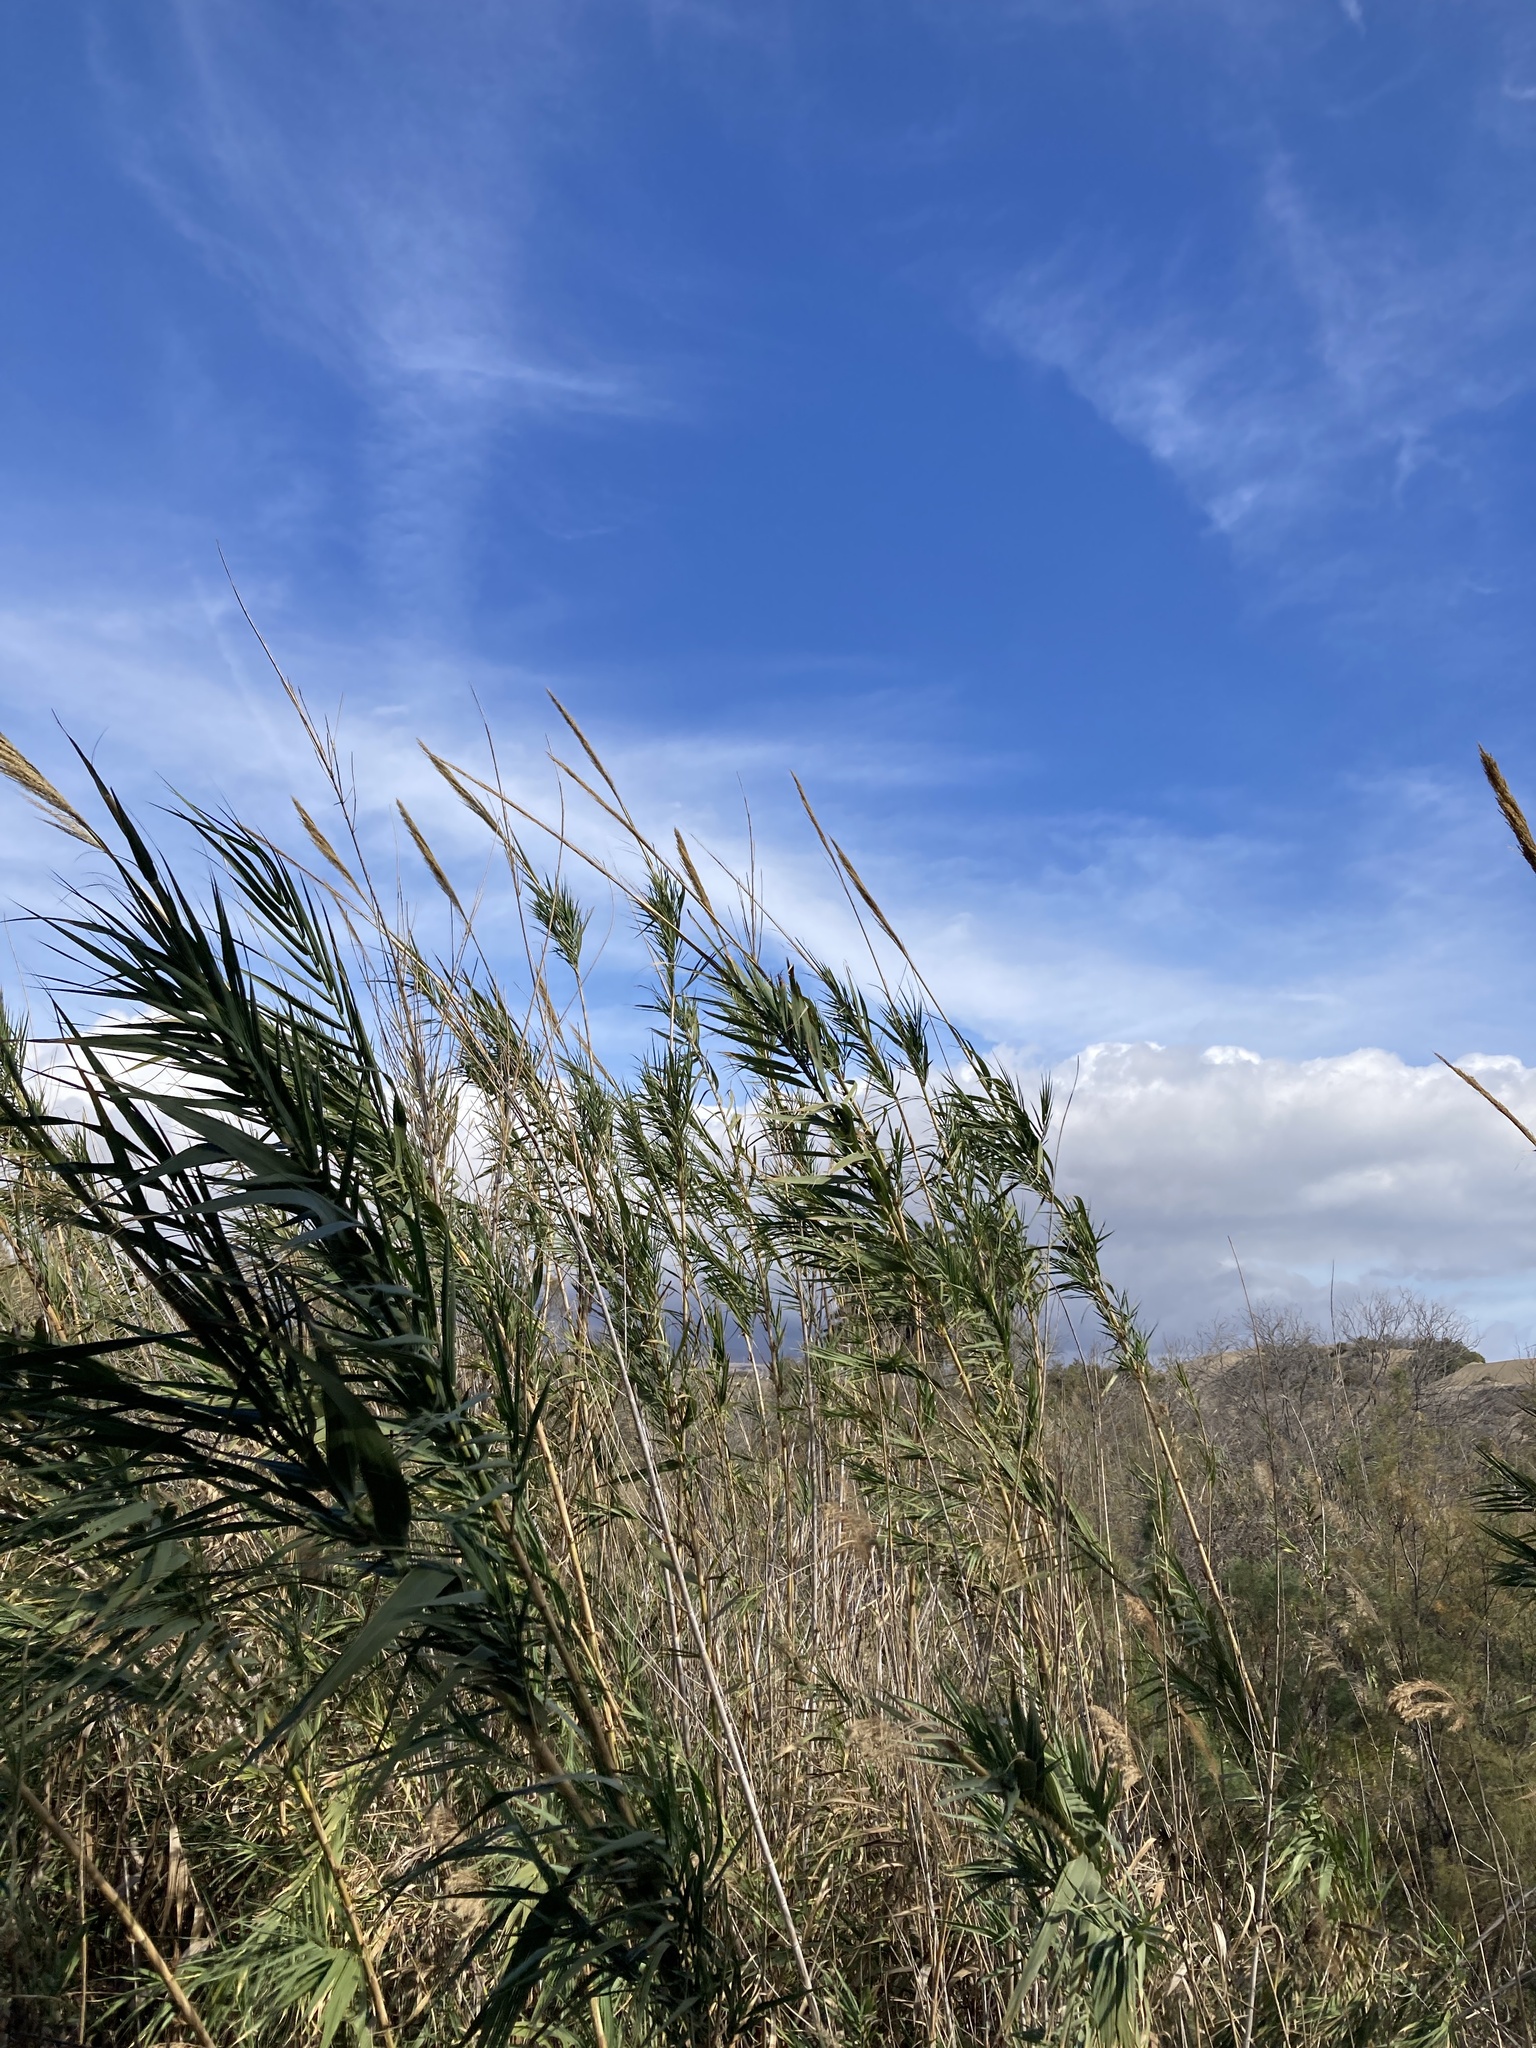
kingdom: Plantae
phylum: Tracheophyta
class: Liliopsida
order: Poales
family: Poaceae
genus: Arundo
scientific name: Arundo donax
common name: Giant reed
